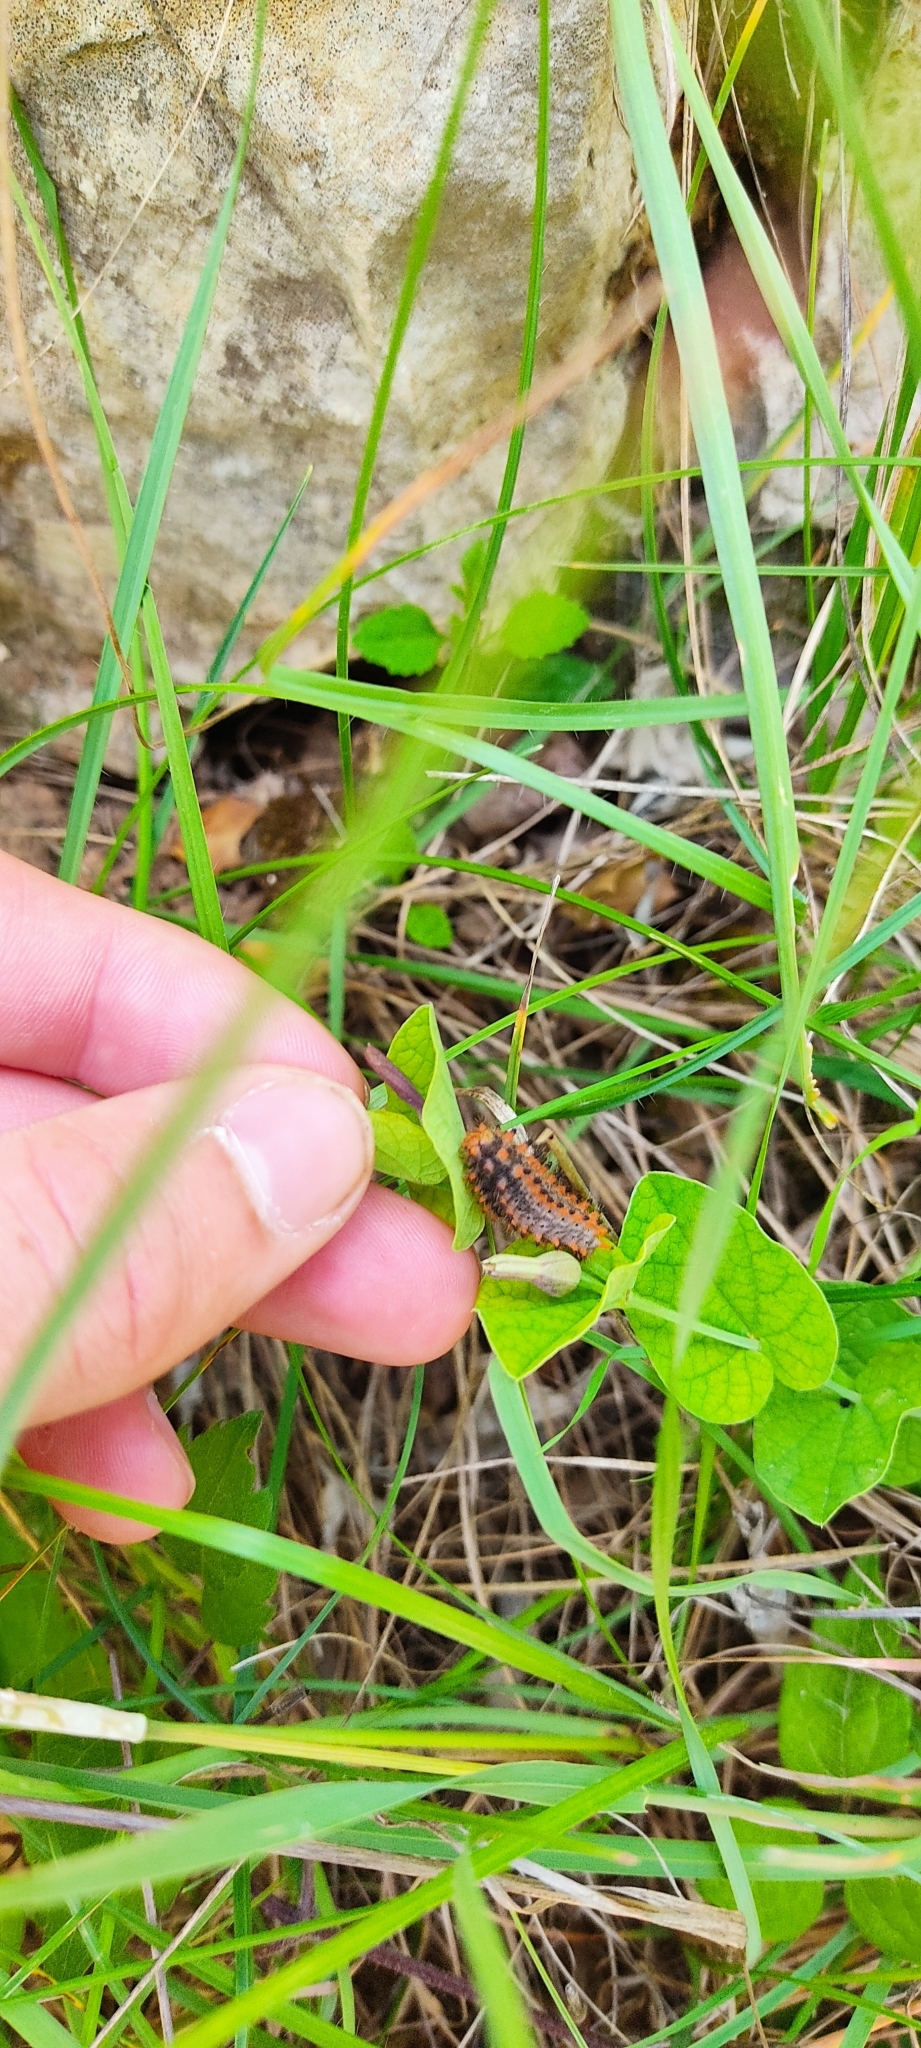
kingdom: Animalia
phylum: Arthropoda
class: Insecta
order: Lepidoptera
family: Papilionidae
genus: Zerynthia
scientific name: Zerynthia polyxena
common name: Southern festoon
